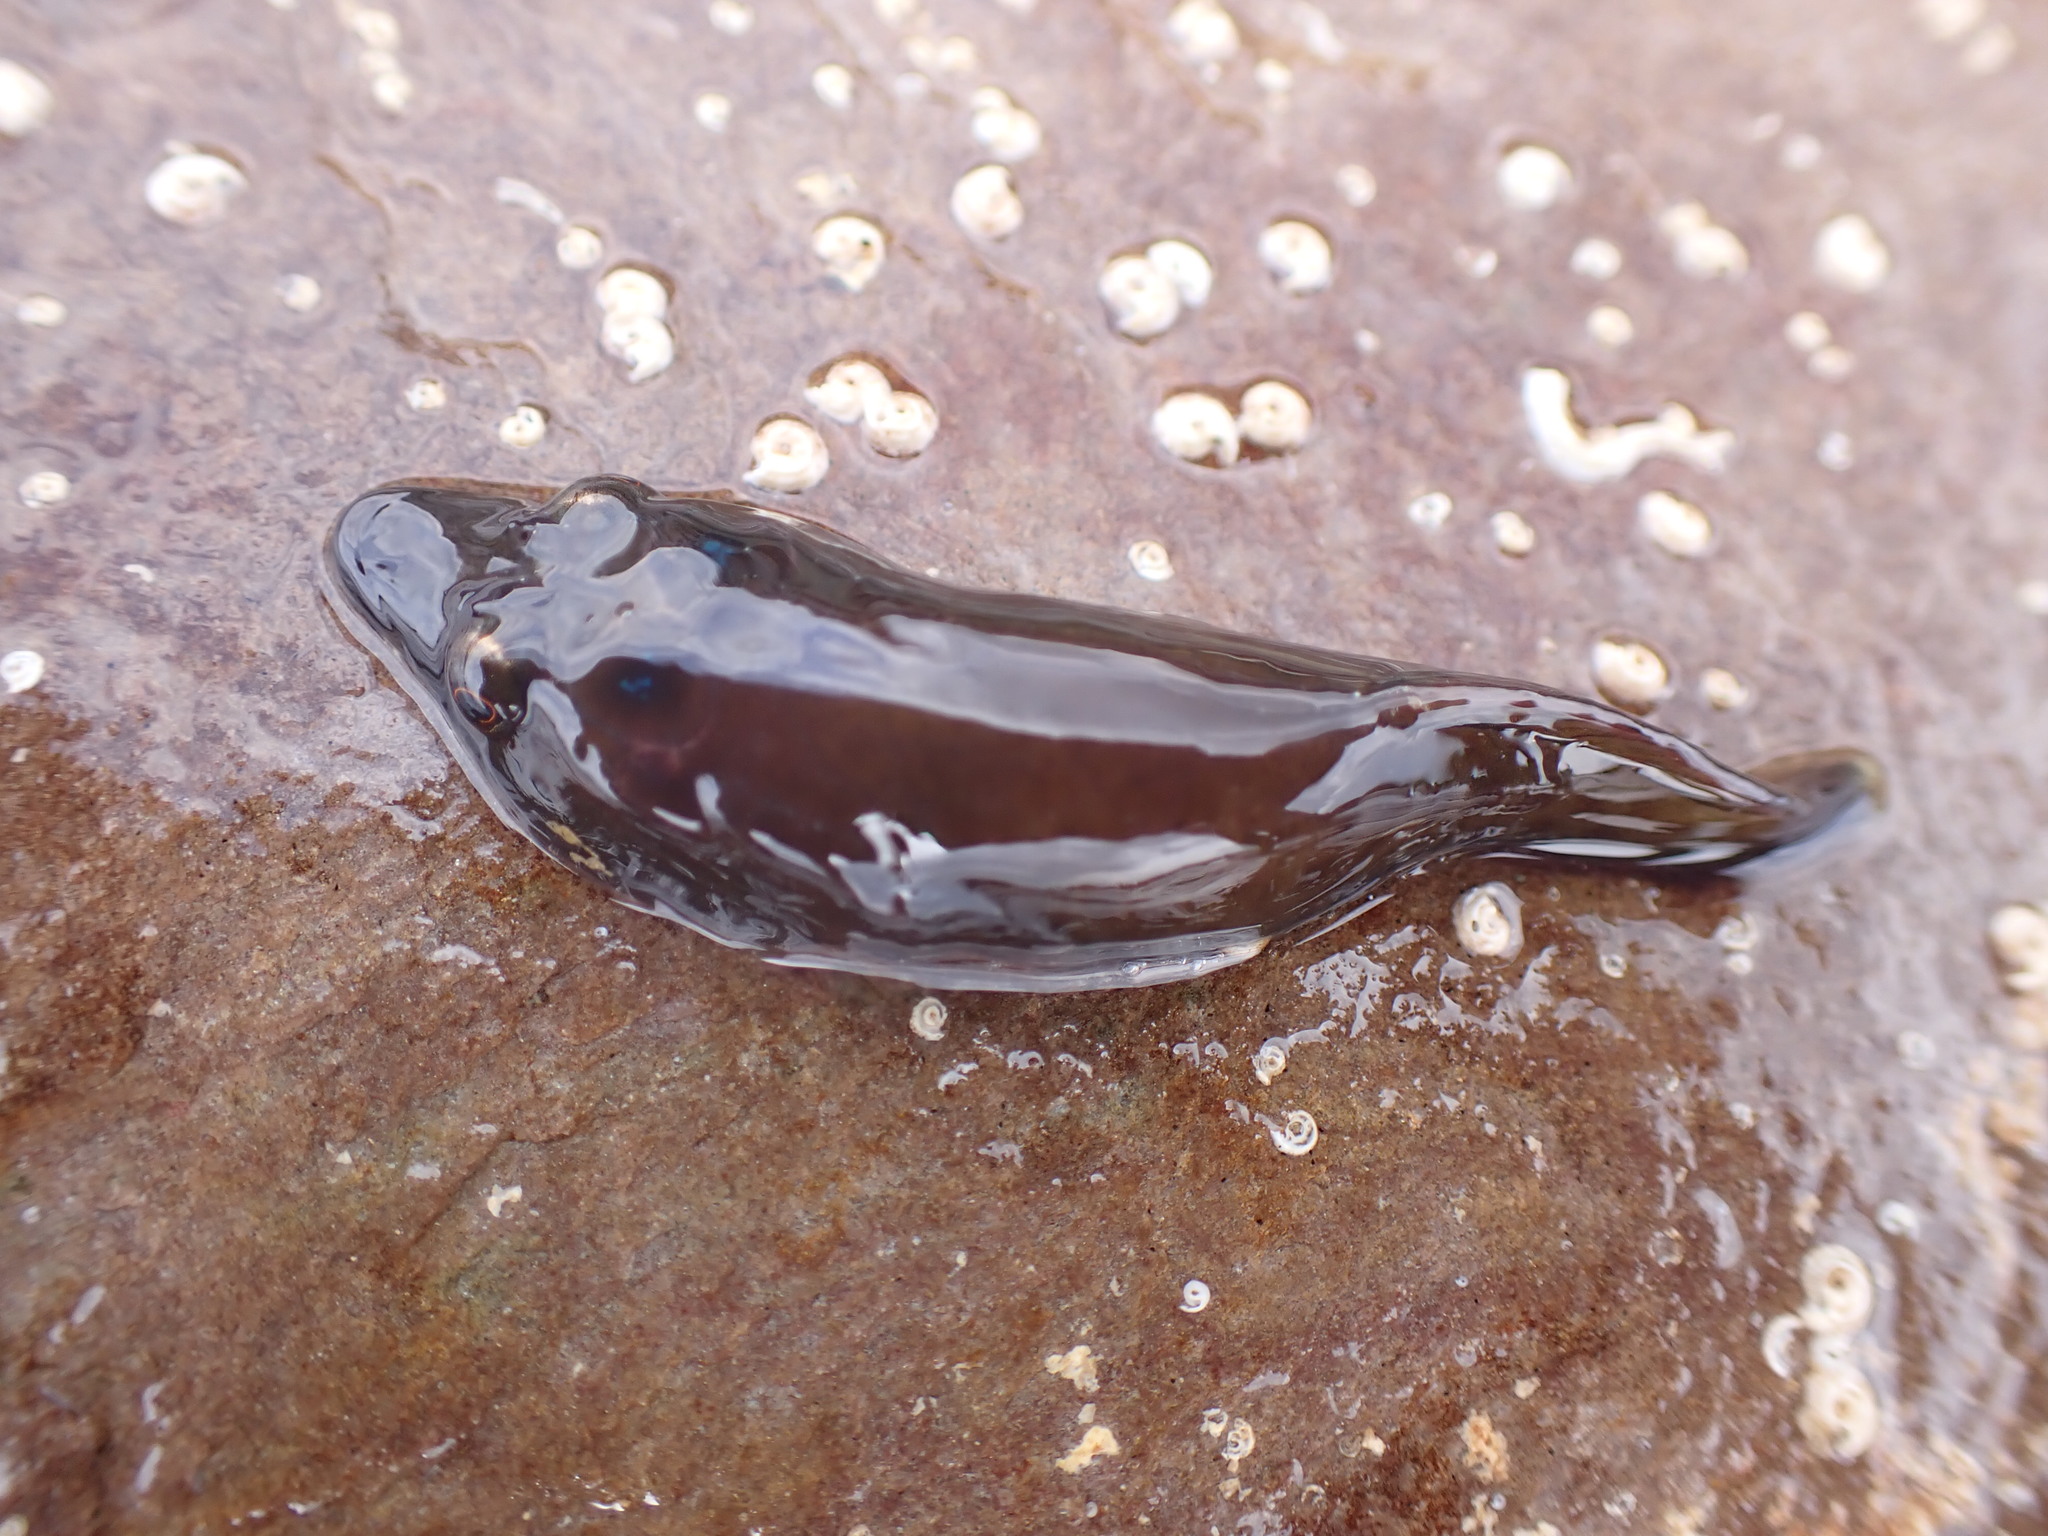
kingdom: Animalia
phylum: Chordata
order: Gobiesociformes
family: Gobiesocidae
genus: Lepadogaster
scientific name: Lepadogaster purpurea
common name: Cornish sucker
